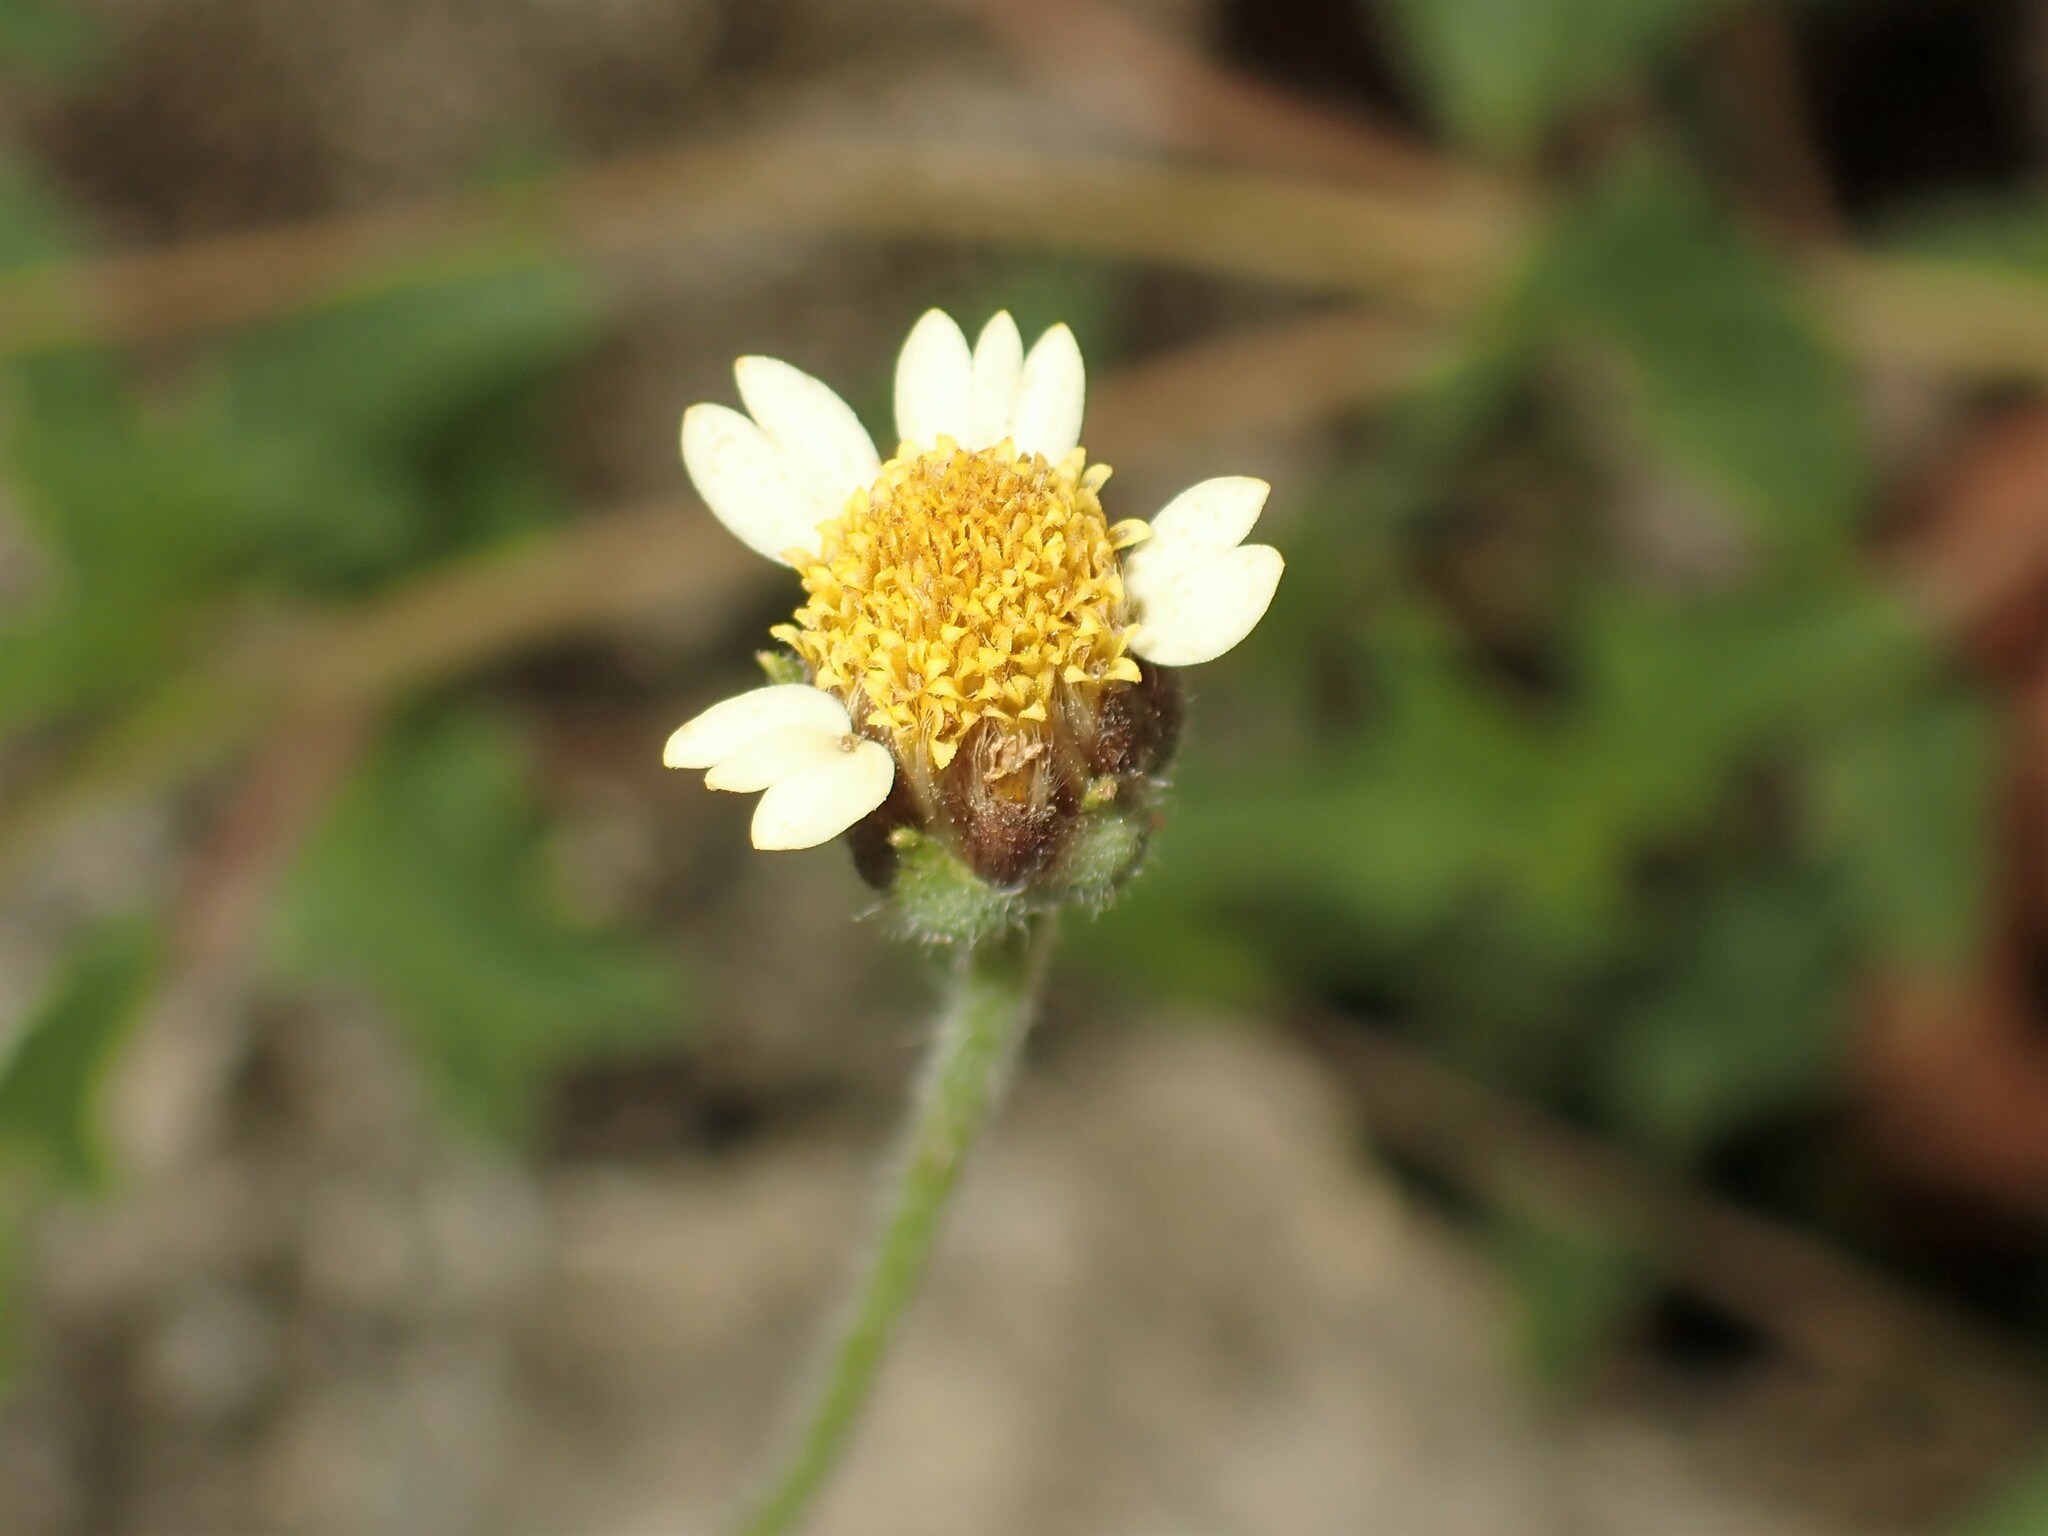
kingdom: Plantae
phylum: Tracheophyta
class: Magnoliopsida
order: Asterales
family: Asteraceae
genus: Tridax
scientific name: Tridax procumbens
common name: Coatbuttons
